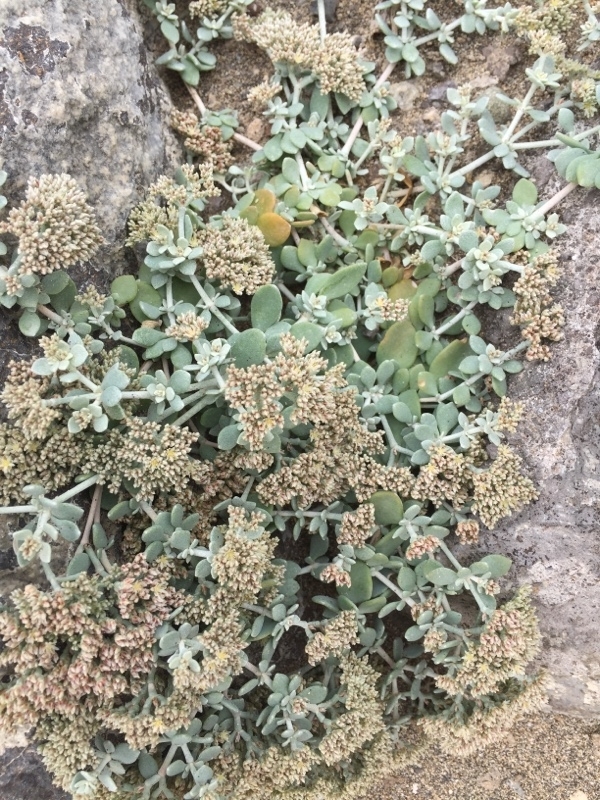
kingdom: Plantae
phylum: Tracheophyta
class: Magnoliopsida
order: Caryophyllales
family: Caryophyllaceae
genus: Polycarpaea
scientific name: Polycarpaea nivea
